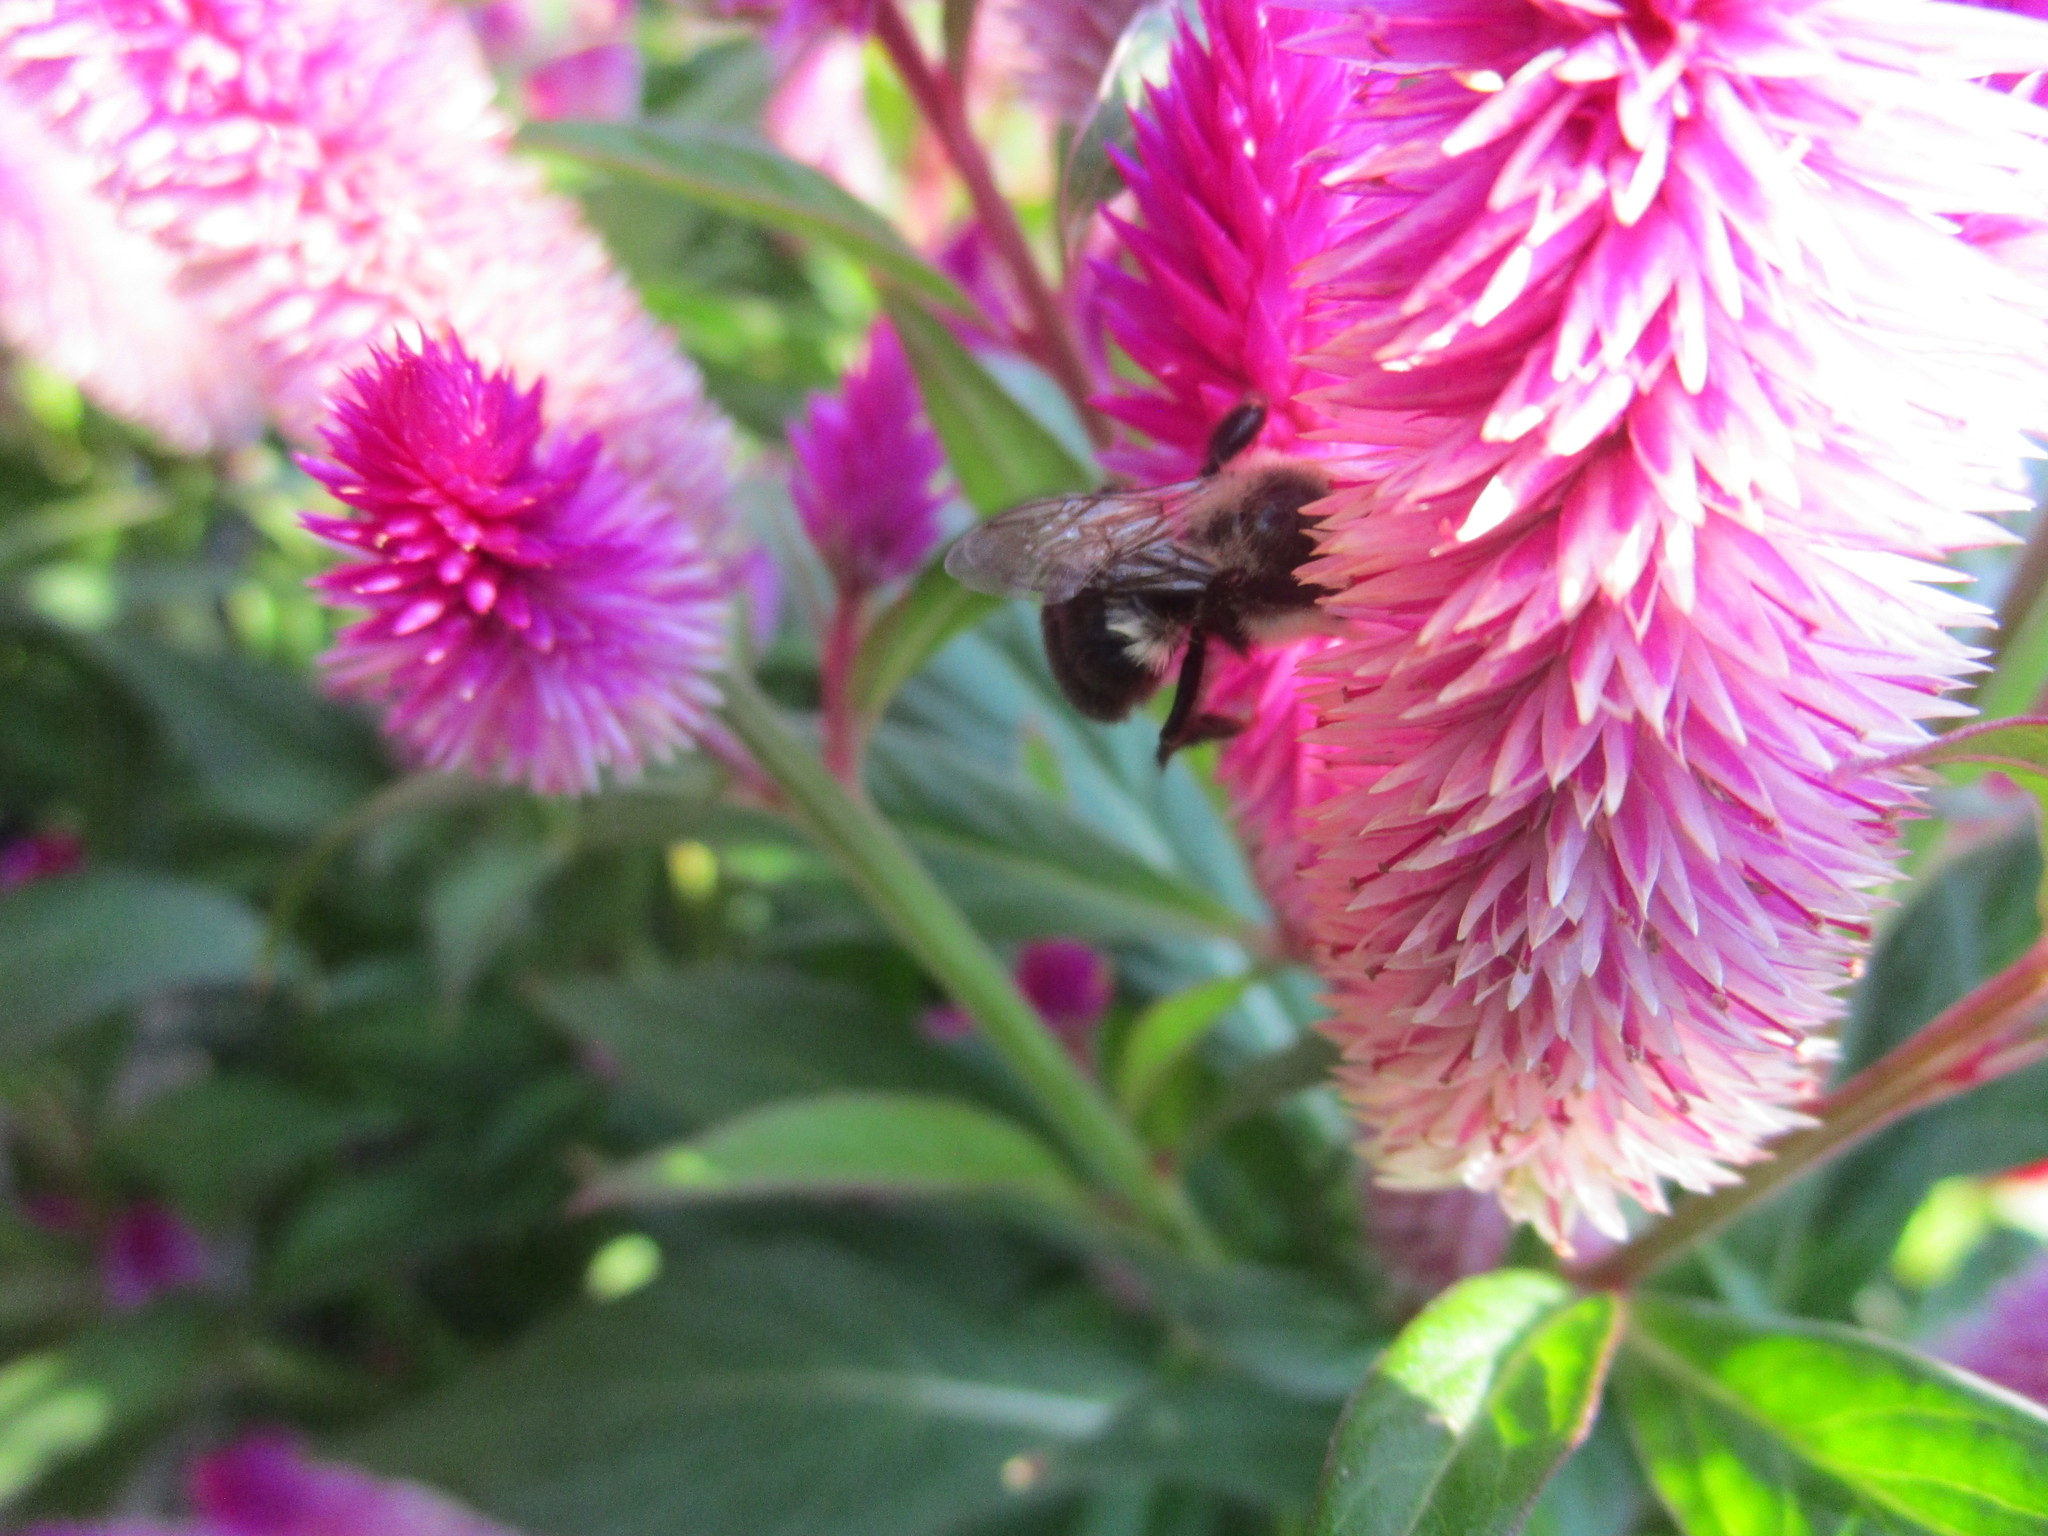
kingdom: Animalia
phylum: Arthropoda
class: Insecta
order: Hymenoptera
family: Apidae
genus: Bombus
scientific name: Bombus impatiens
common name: Common eastern bumble bee
